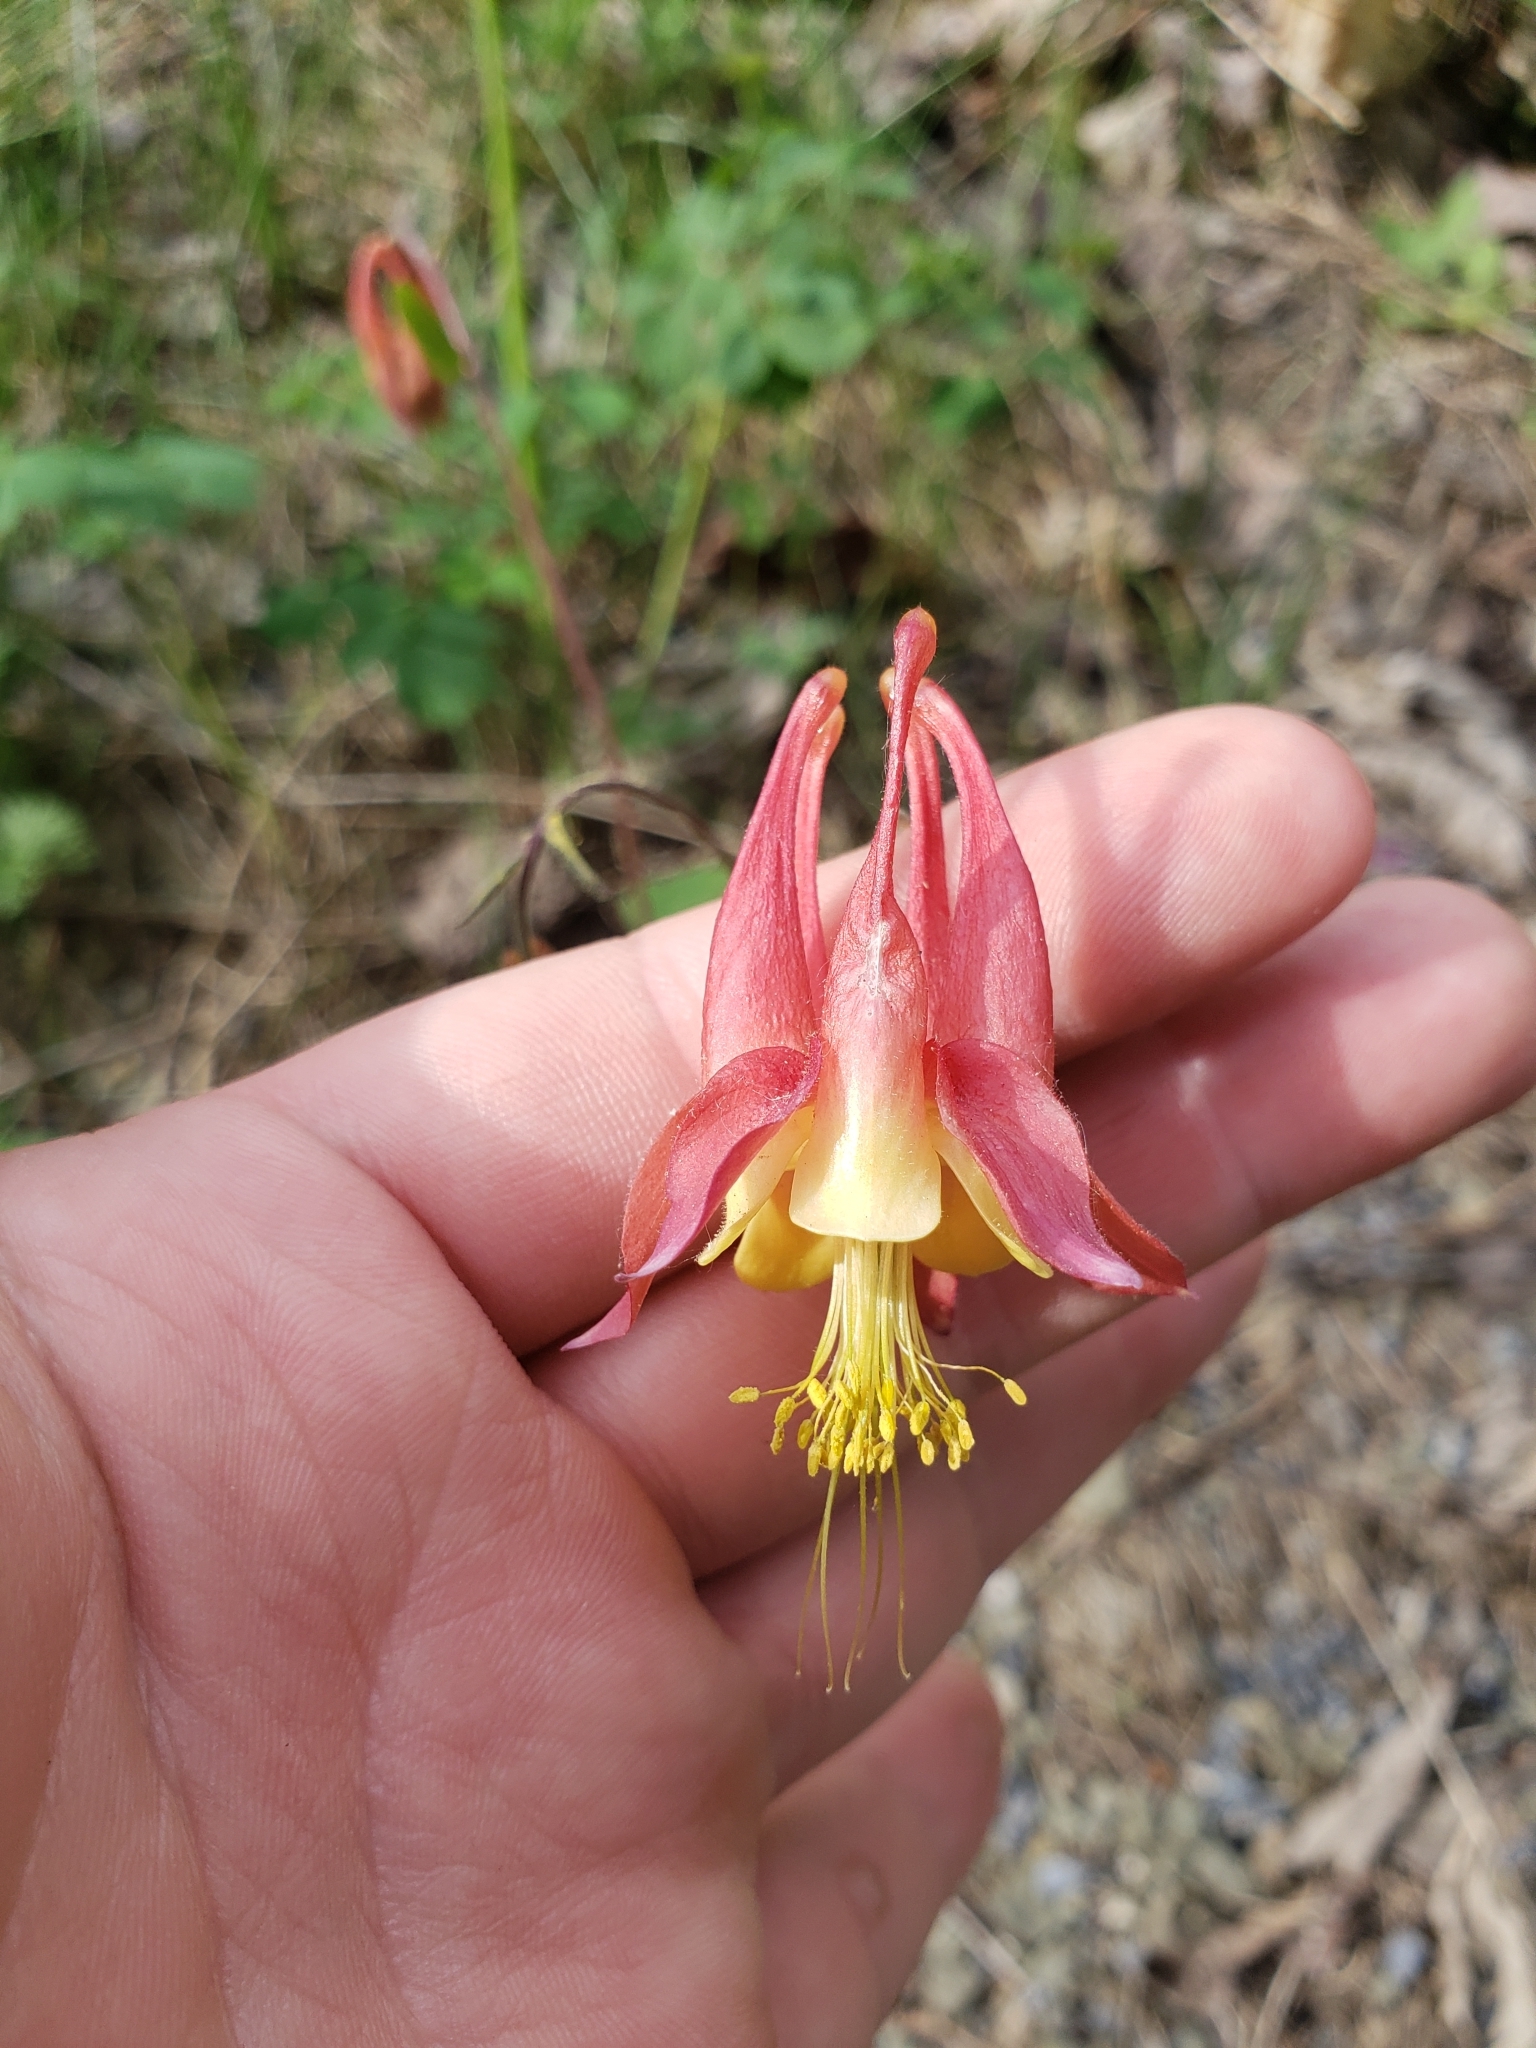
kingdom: Plantae
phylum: Tracheophyta
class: Magnoliopsida
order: Ranunculales
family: Ranunculaceae
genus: Aquilegia
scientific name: Aquilegia canadensis
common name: American columbine
